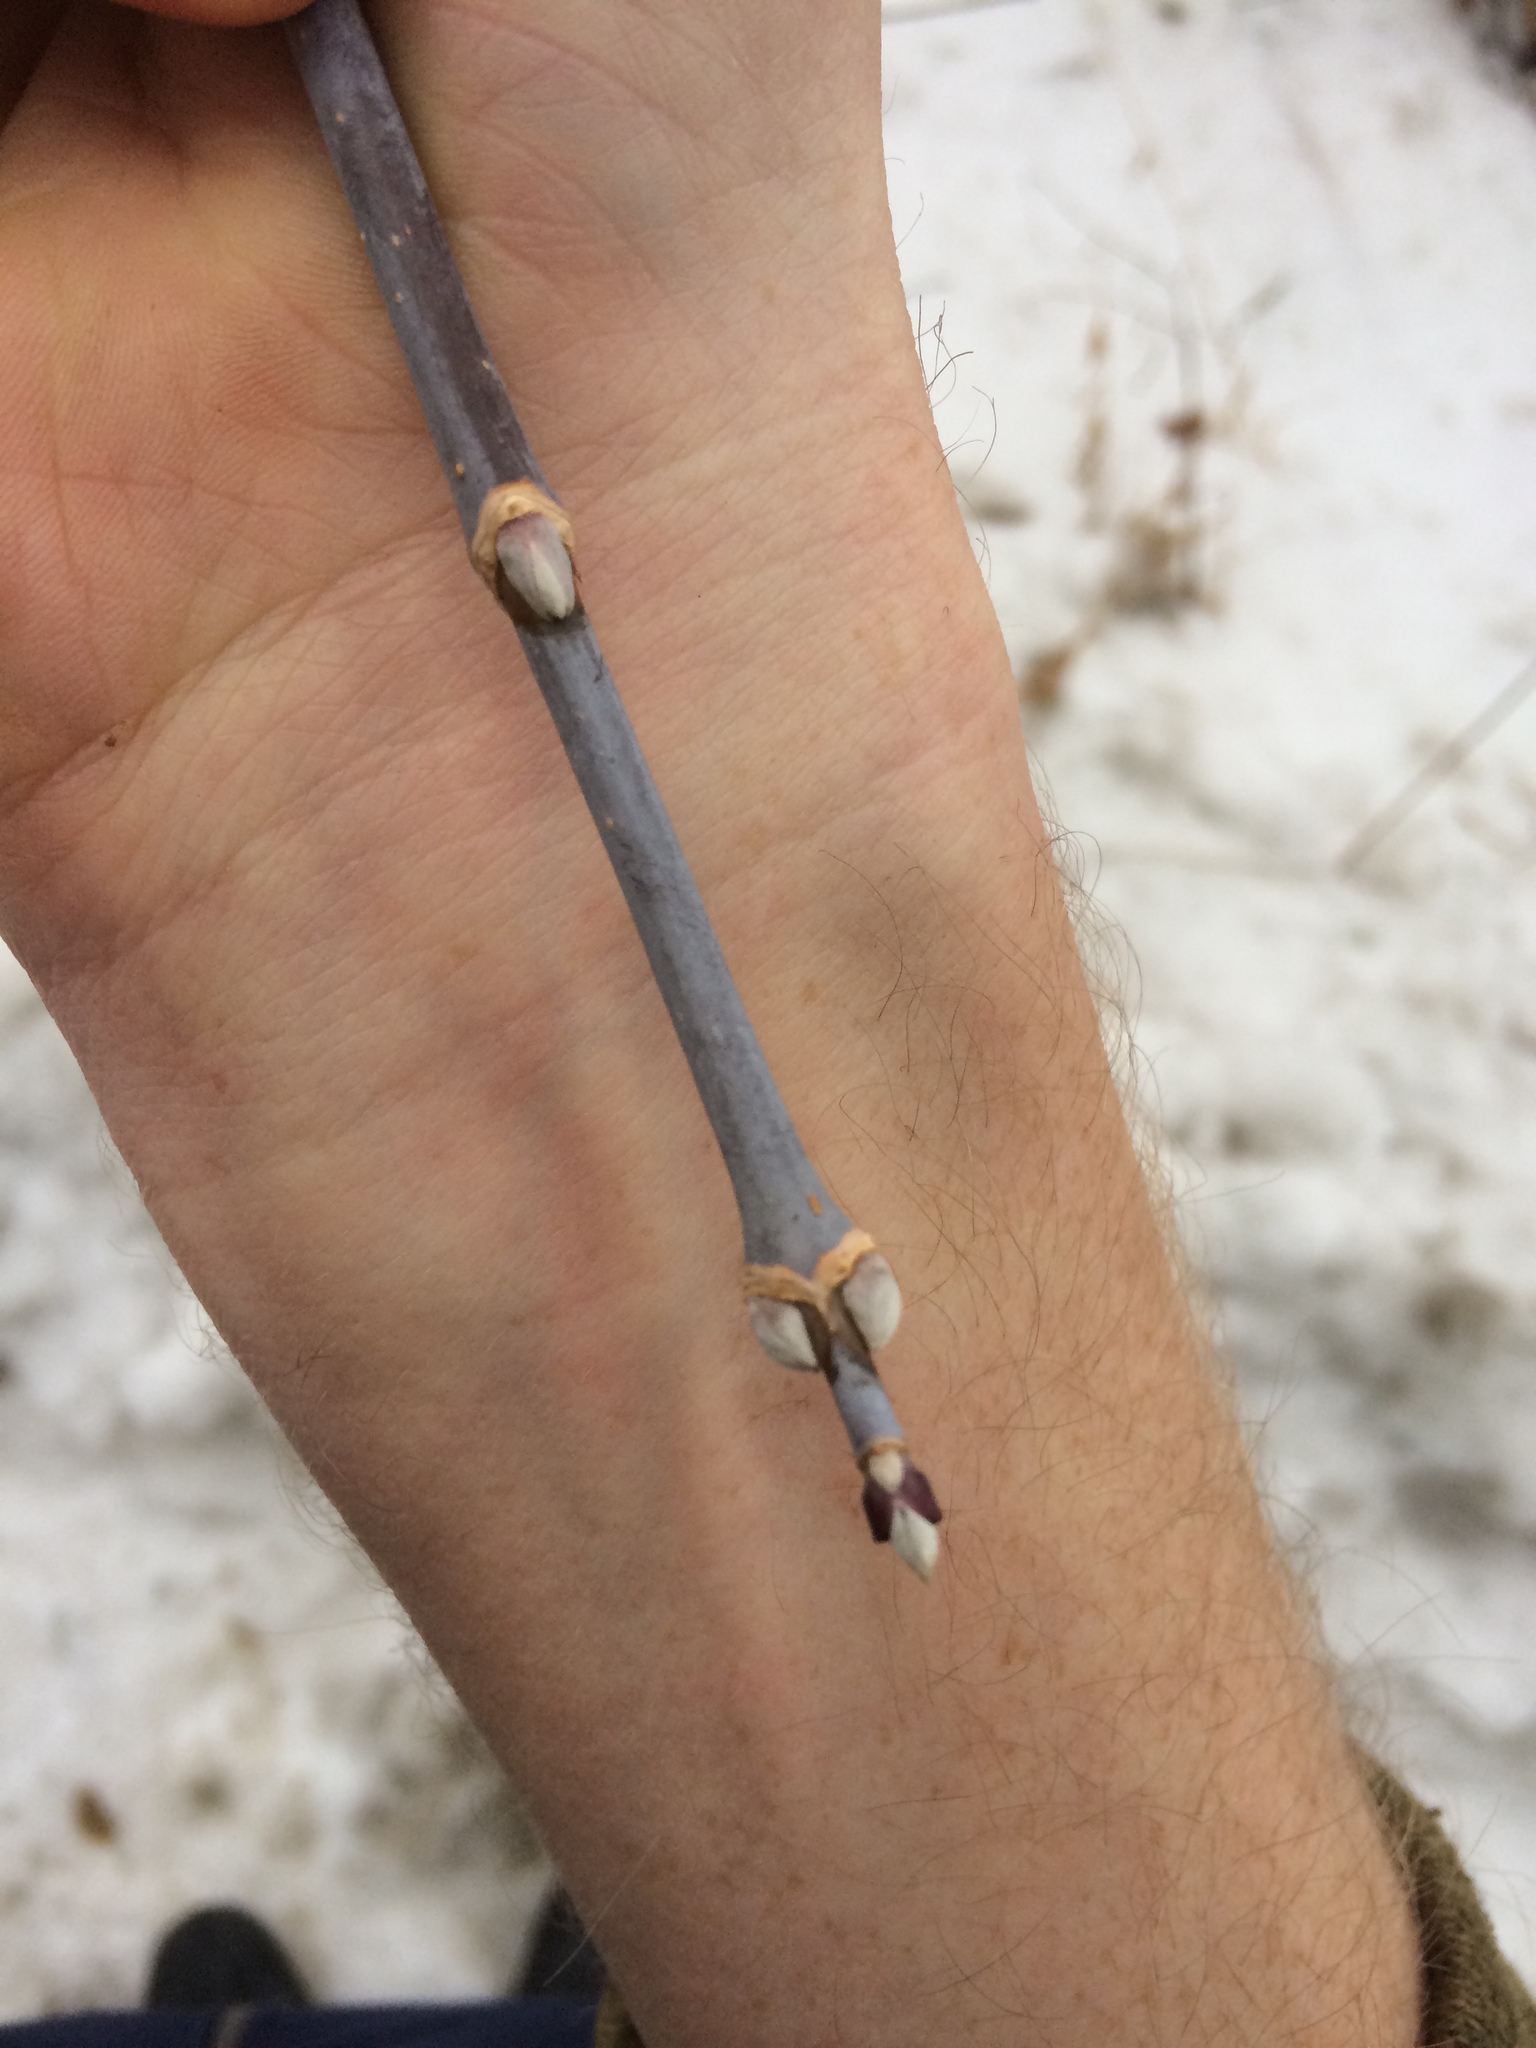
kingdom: Plantae
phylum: Tracheophyta
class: Magnoliopsida
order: Sapindales
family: Sapindaceae
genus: Acer
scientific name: Acer negundo
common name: Ashleaf maple
